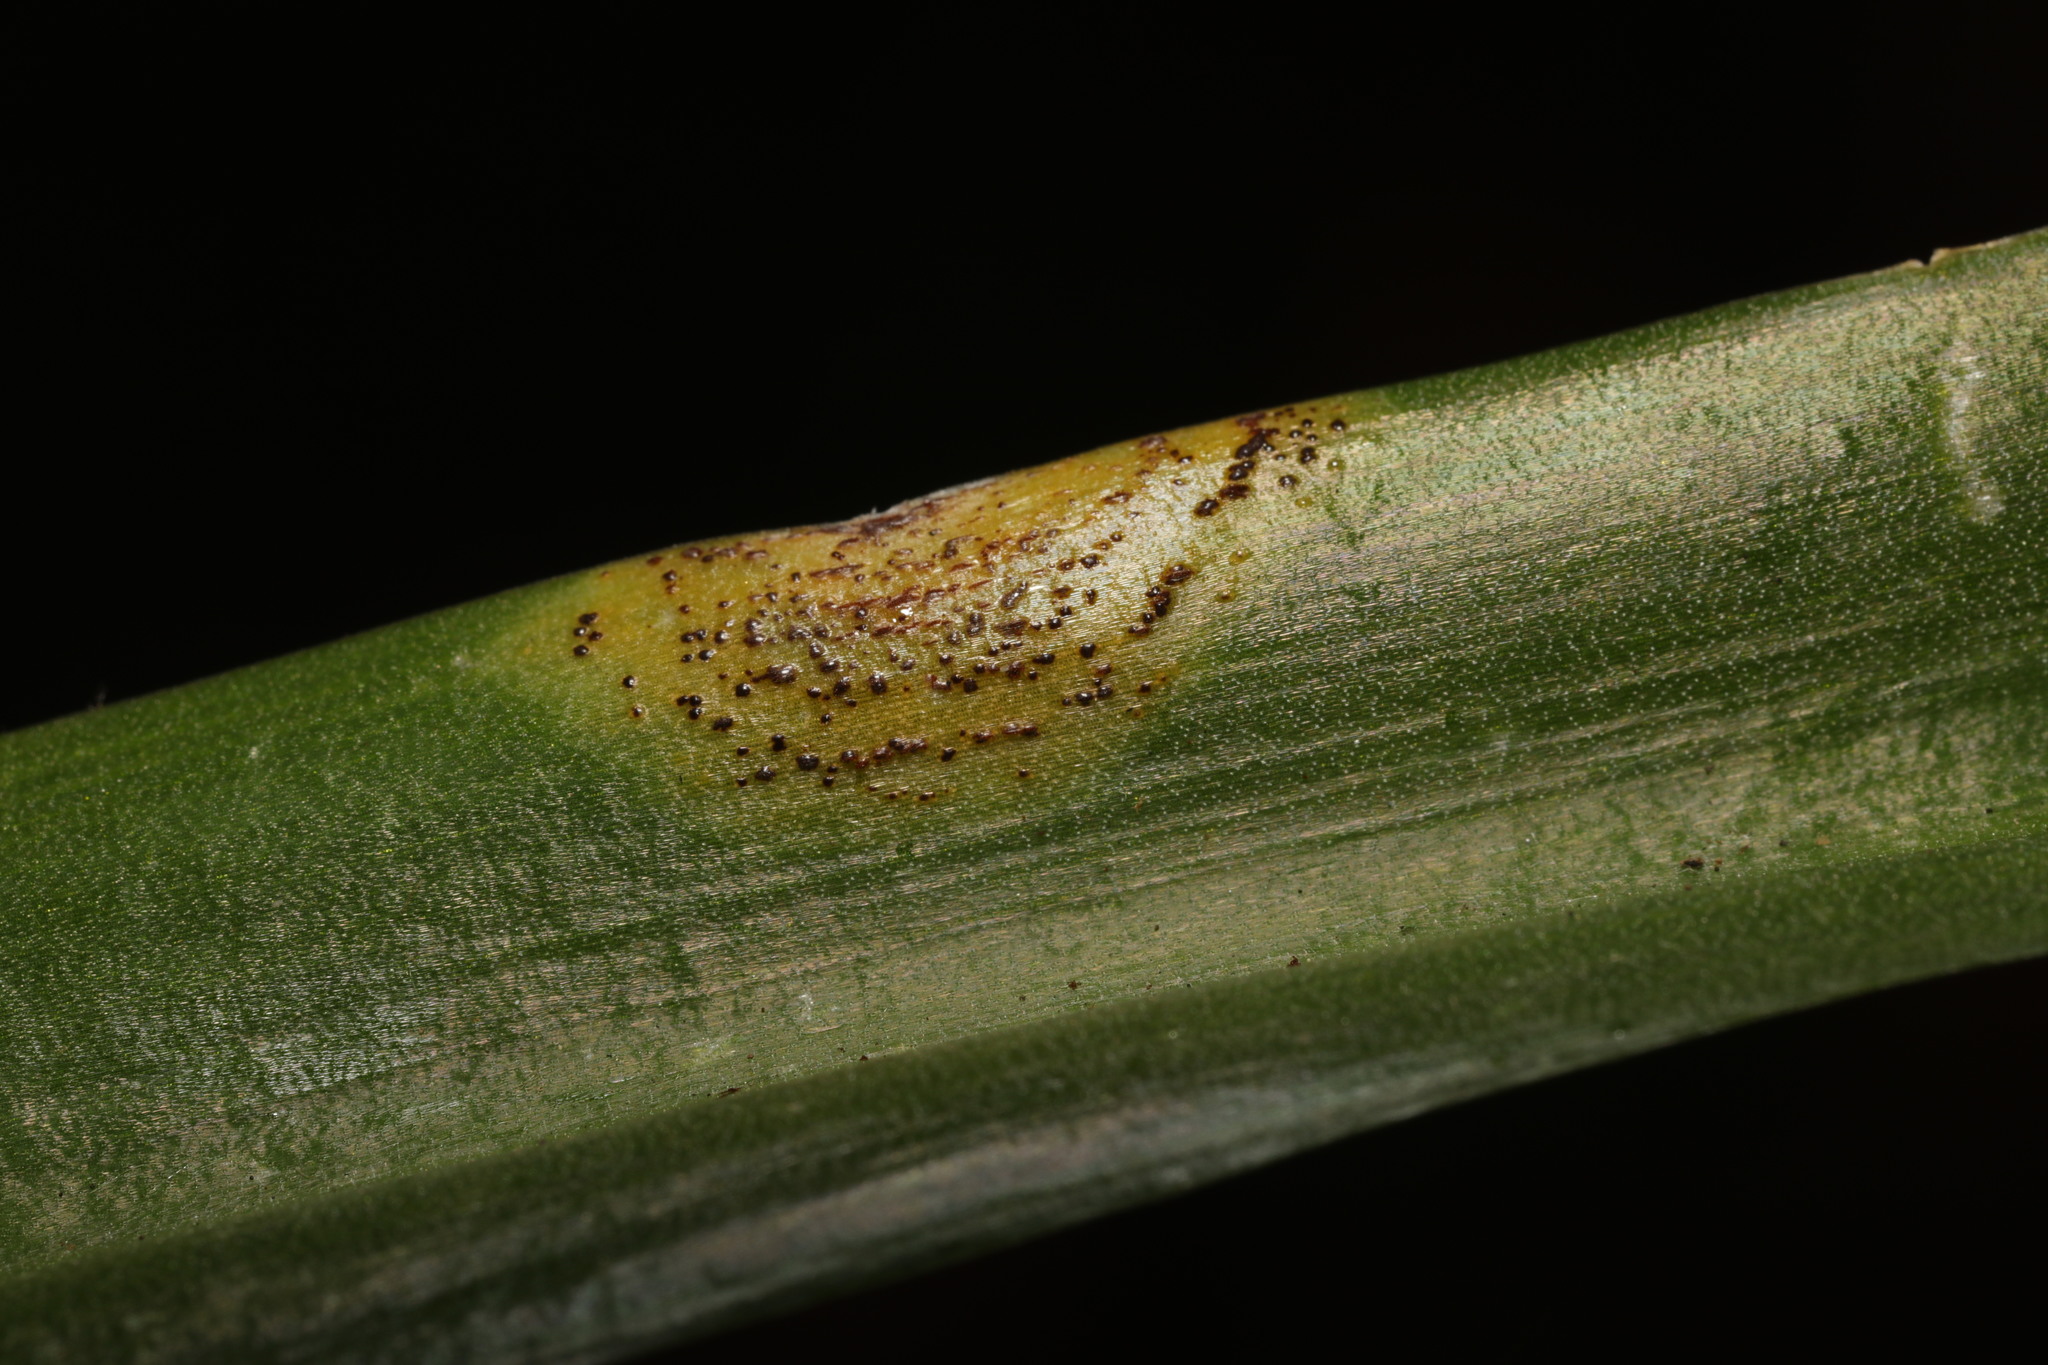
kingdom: Fungi
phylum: Basidiomycota
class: Pucciniomycetes
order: Pucciniales
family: Pucciniaceae
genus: Uromyces
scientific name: Uromyces hyacinthi
